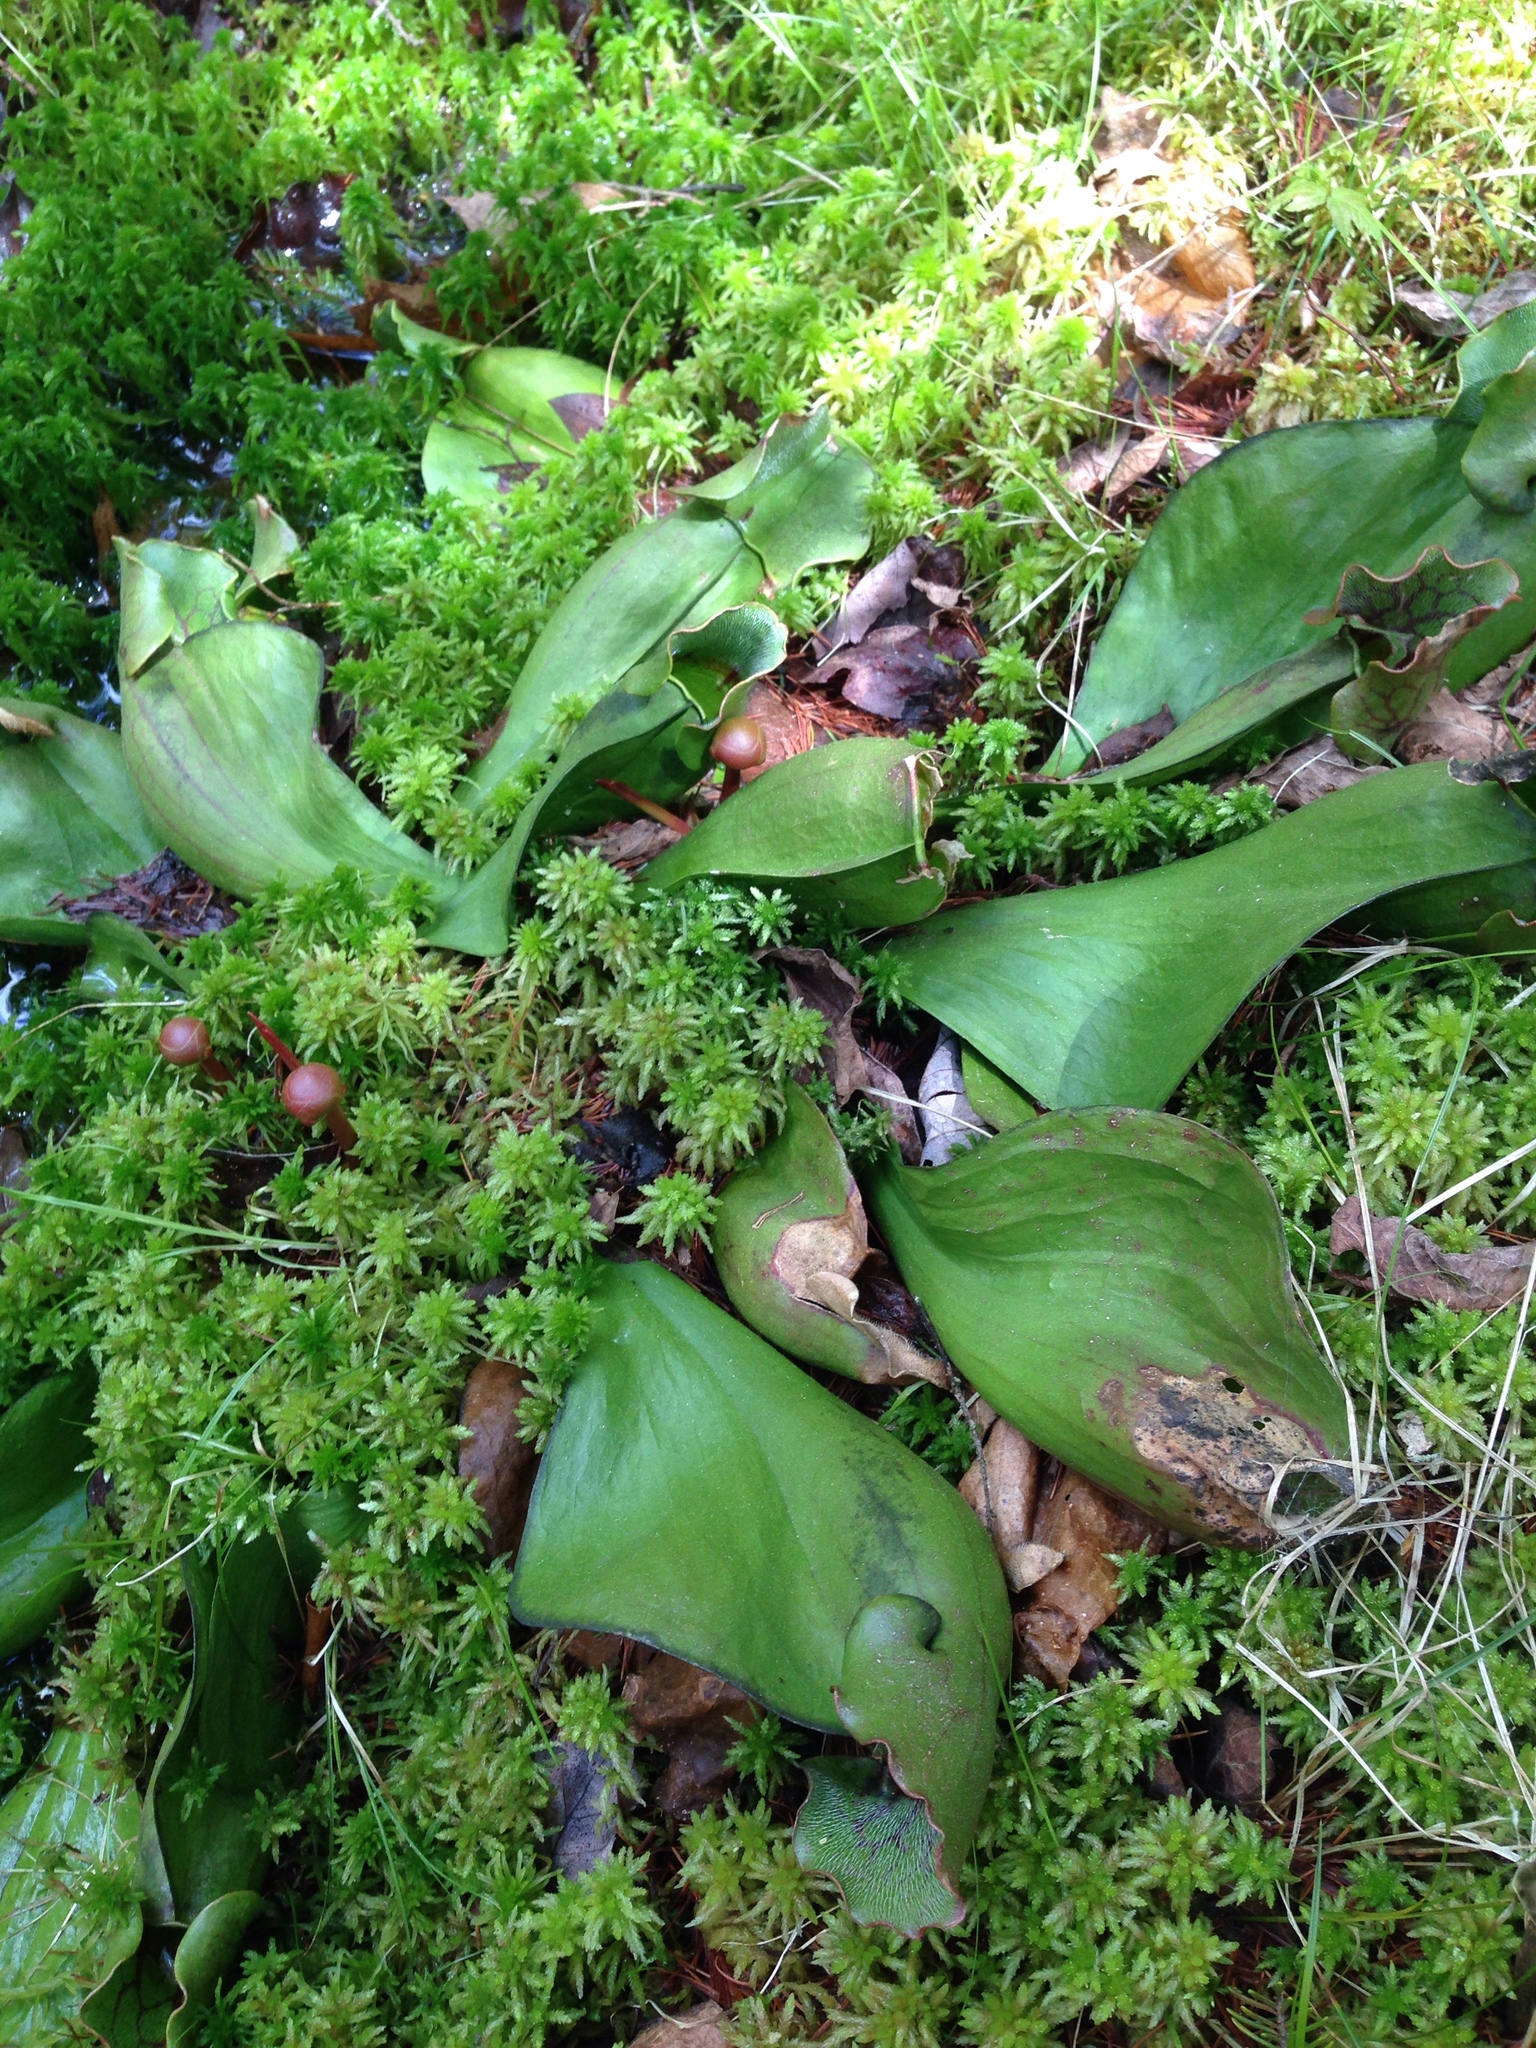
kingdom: Plantae
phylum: Tracheophyta
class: Magnoliopsida
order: Ericales
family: Sarraceniaceae
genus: Sarracenia
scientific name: Sarracenia purpurea
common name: Pitcherplant
